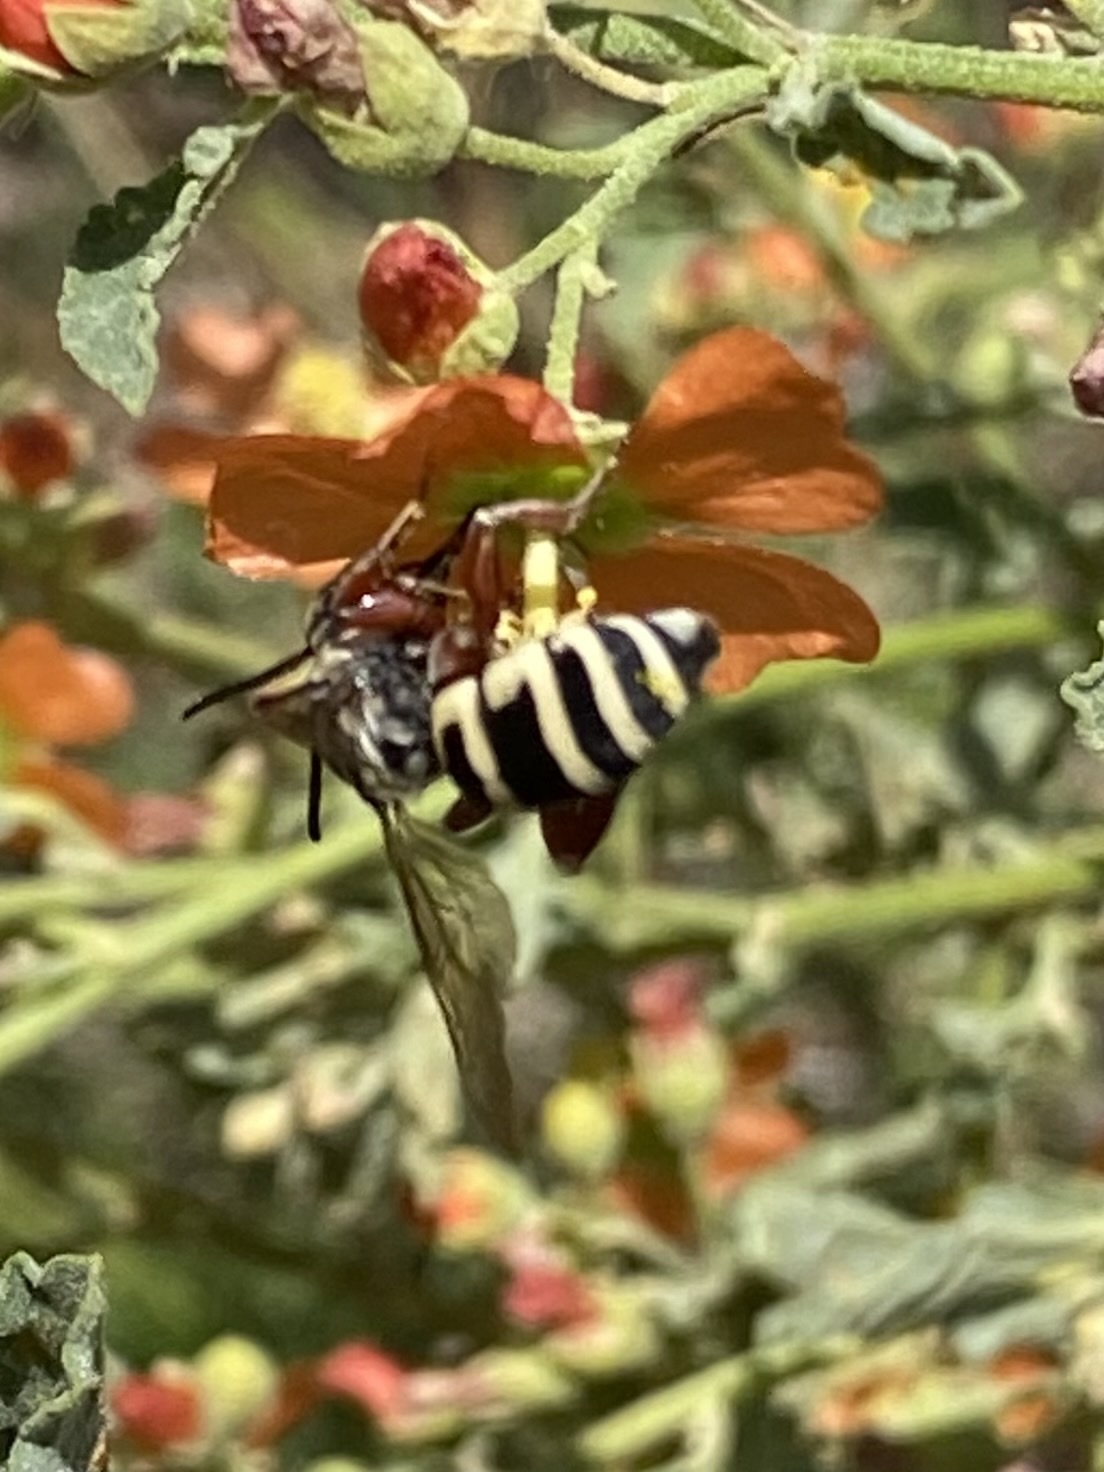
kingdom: Animalia
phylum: Arthropoda
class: Insecta
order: Hymenoptera
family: Apidae
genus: Triepeolus
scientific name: Triepeolus
